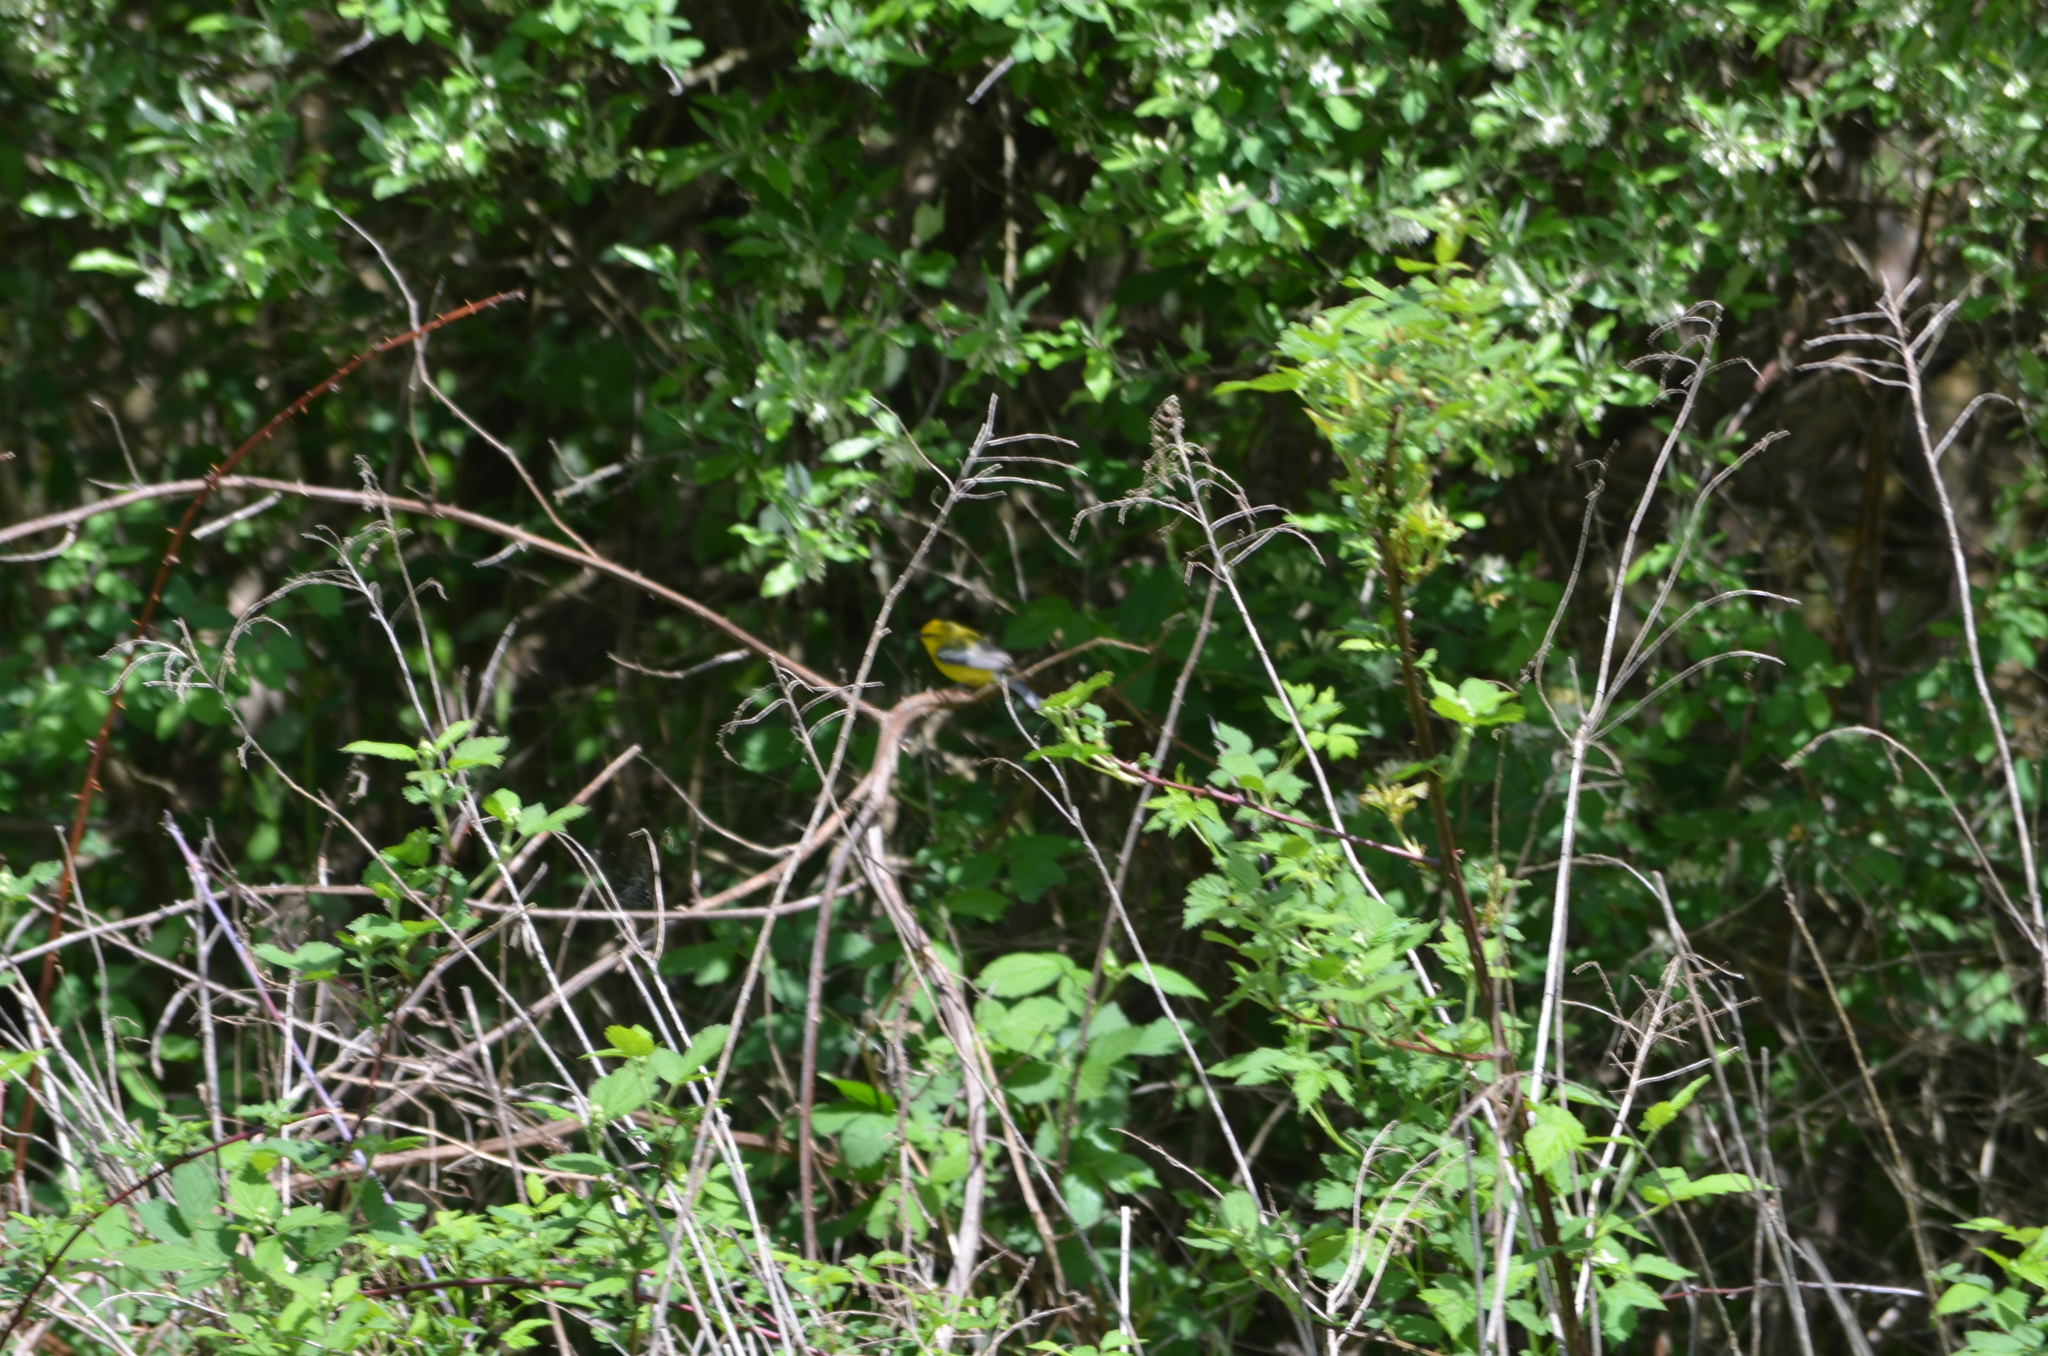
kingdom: Animalia
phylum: Chordata
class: Aves
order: Passeriformes
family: Parulidae
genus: Vermivora
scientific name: Vermivora cyanoptera
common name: Blue-winged warbler
